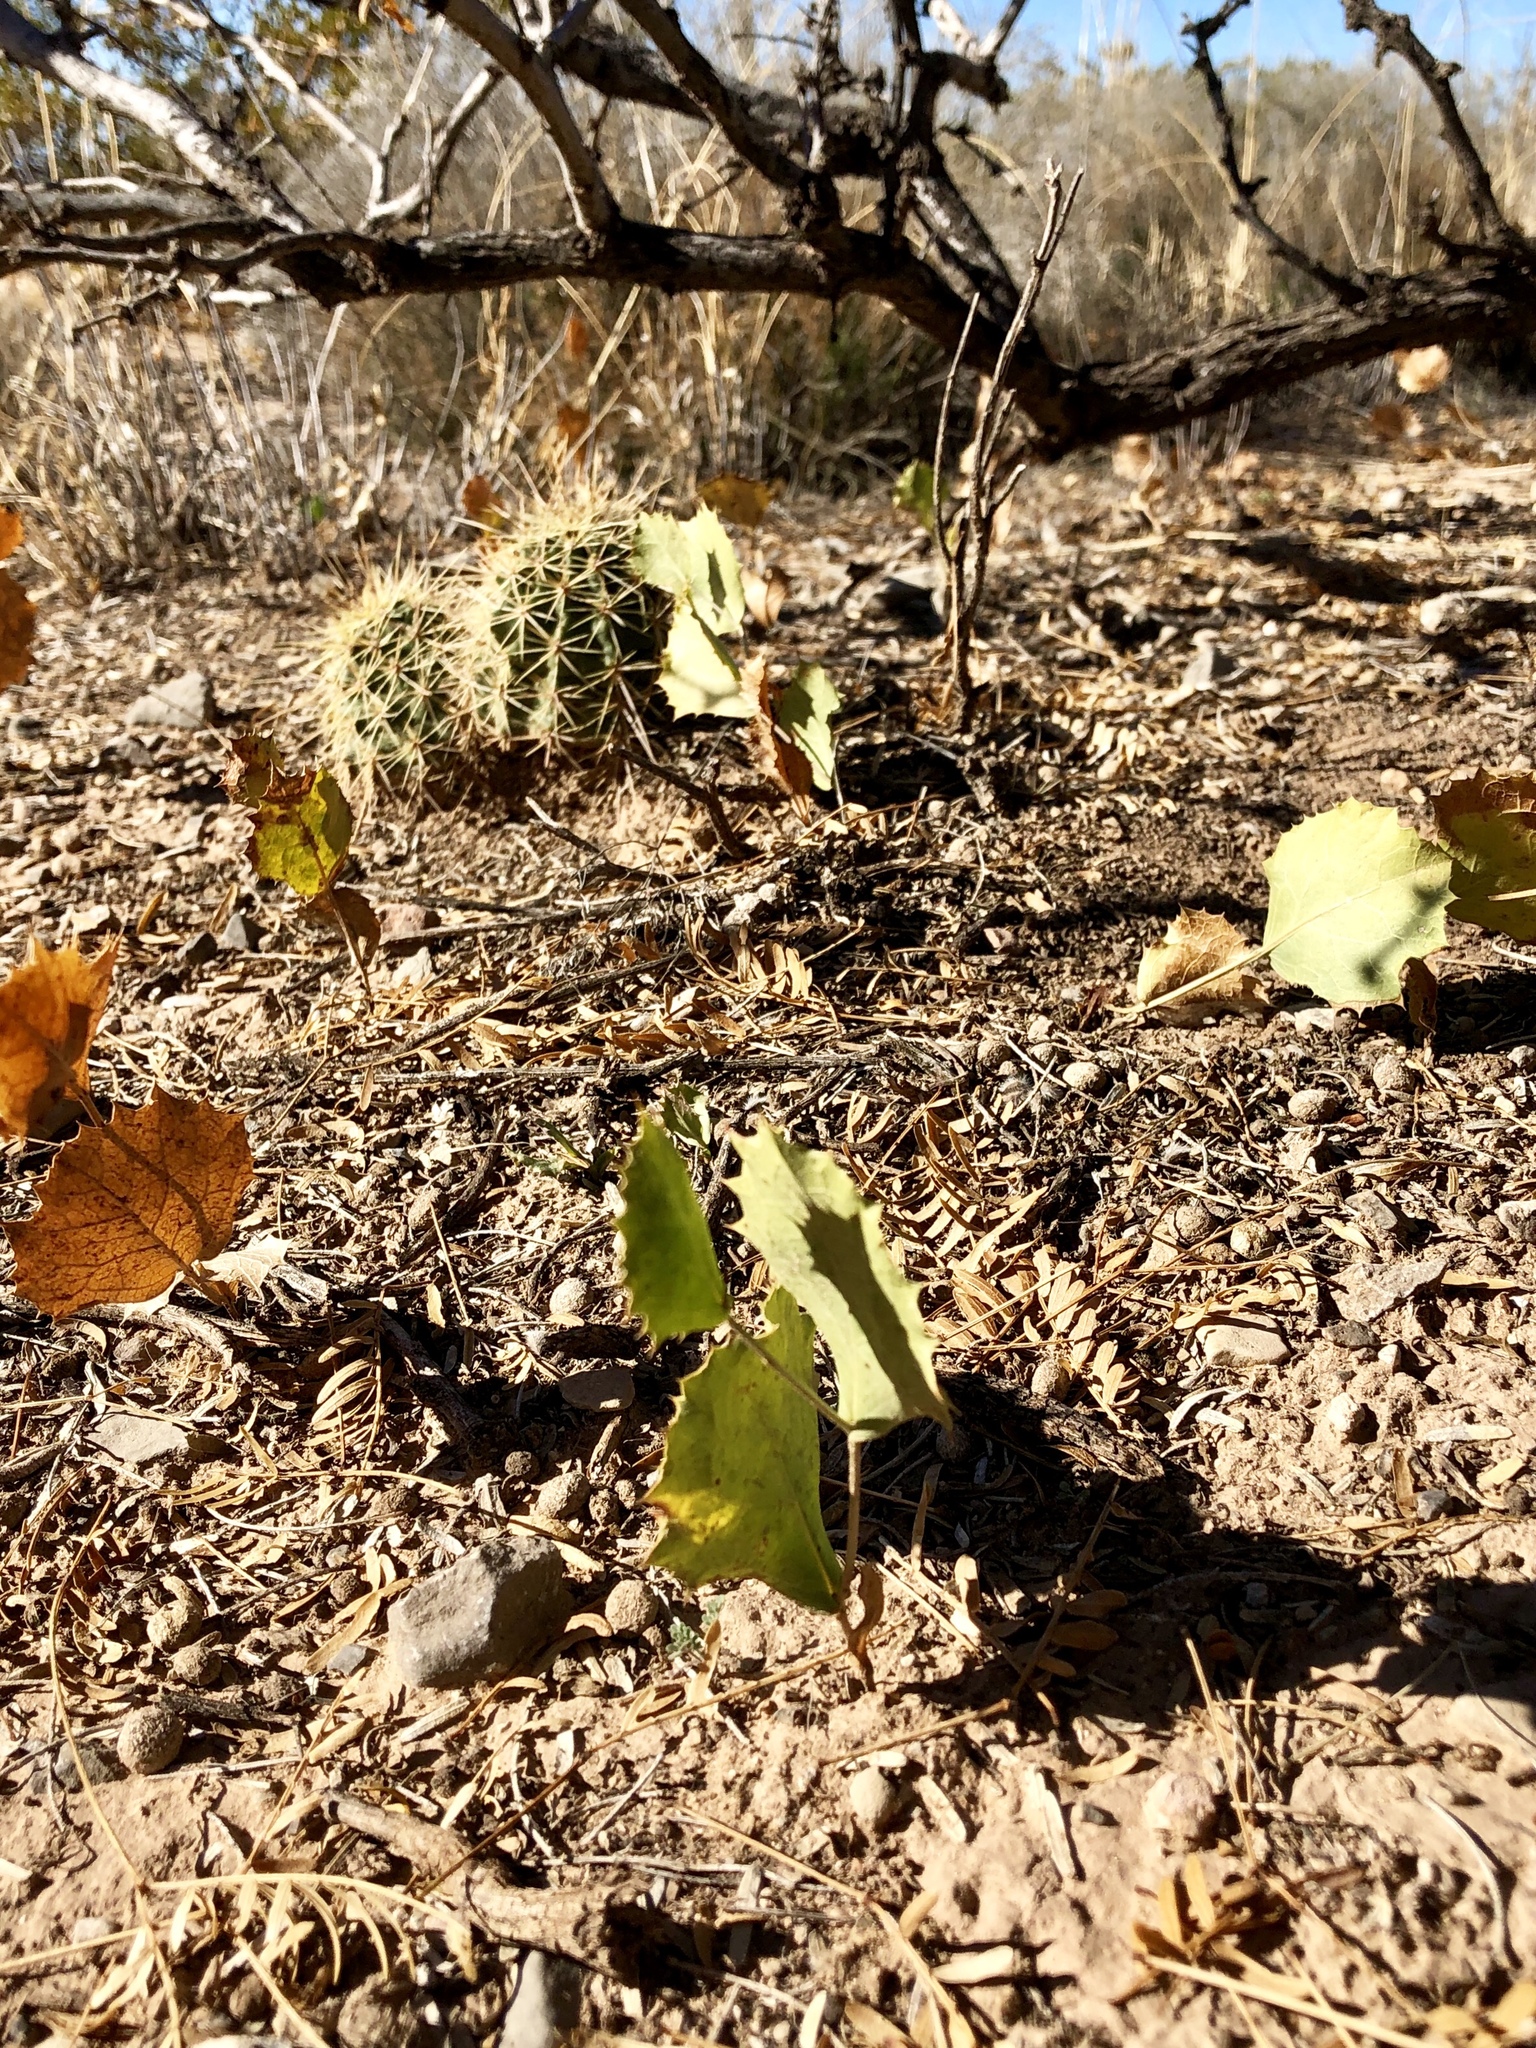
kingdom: Plantae
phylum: Tracheophyta
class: Magnoliopsida
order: Asterales
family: Asteraceae
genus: Acourtia
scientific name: Acourtia nana
